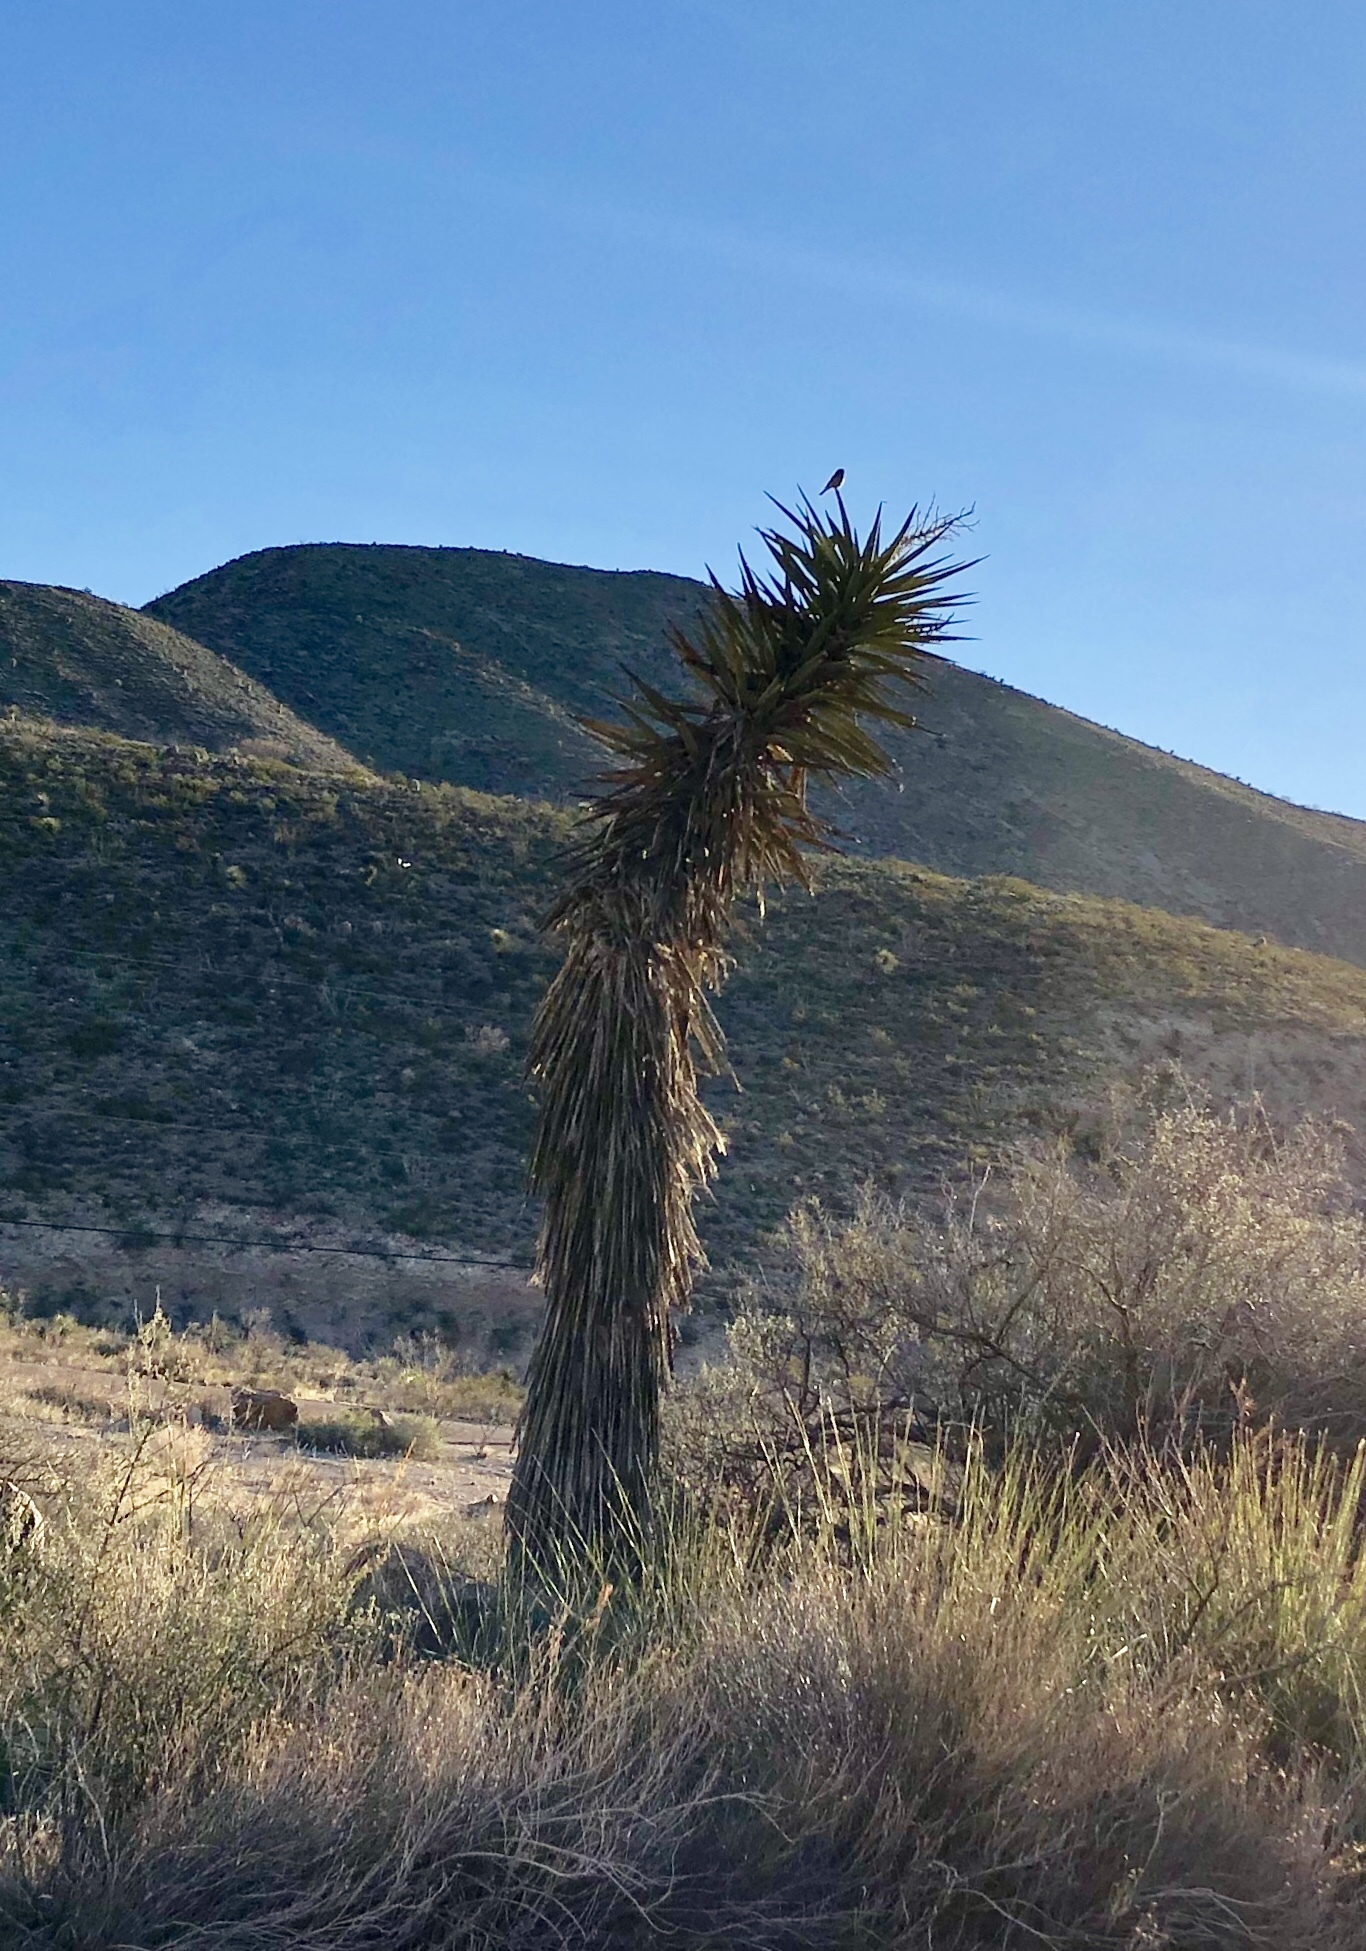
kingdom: Plantae
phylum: Tracheophyta
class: Liliopsida
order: Asparagales
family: Asparagaceae
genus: Yucca
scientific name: Yucca treculiana
